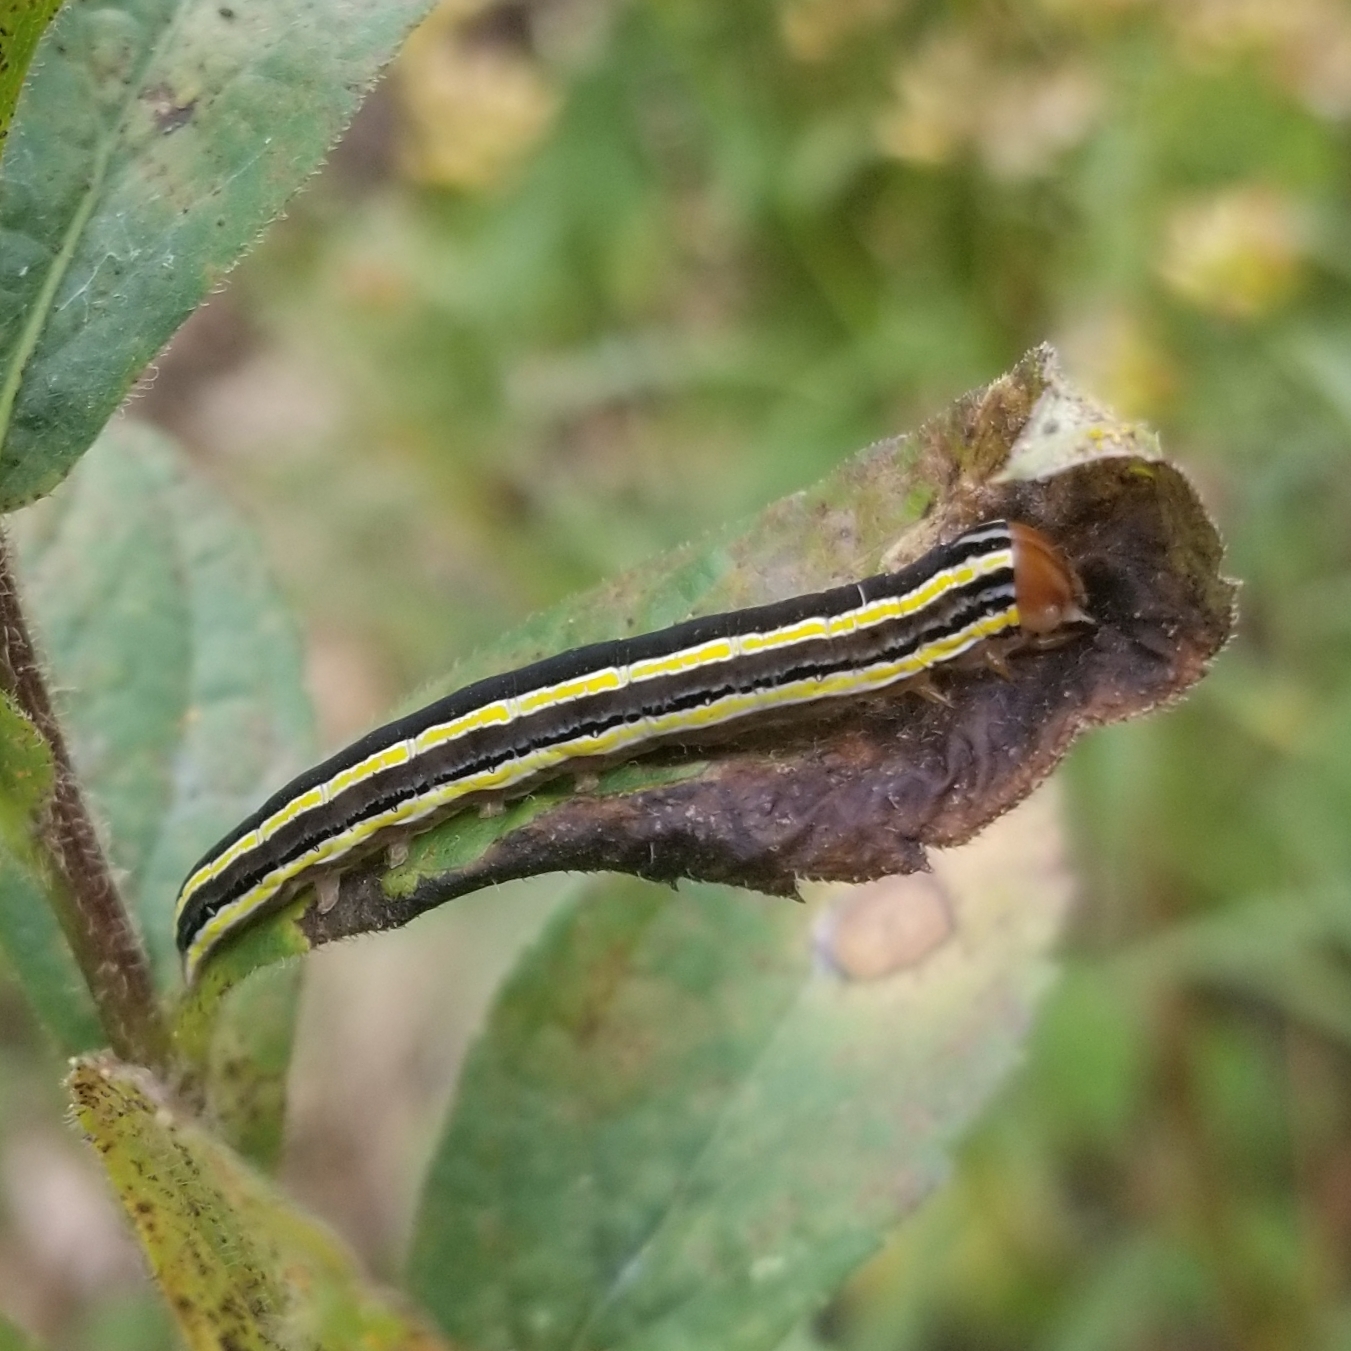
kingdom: Animalia
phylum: Arthropoda
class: Insecta
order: Lepidoptera
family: Noctuidae
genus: Trichordestra
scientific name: Trichordestra legitima
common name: Striped garden caterpillar
